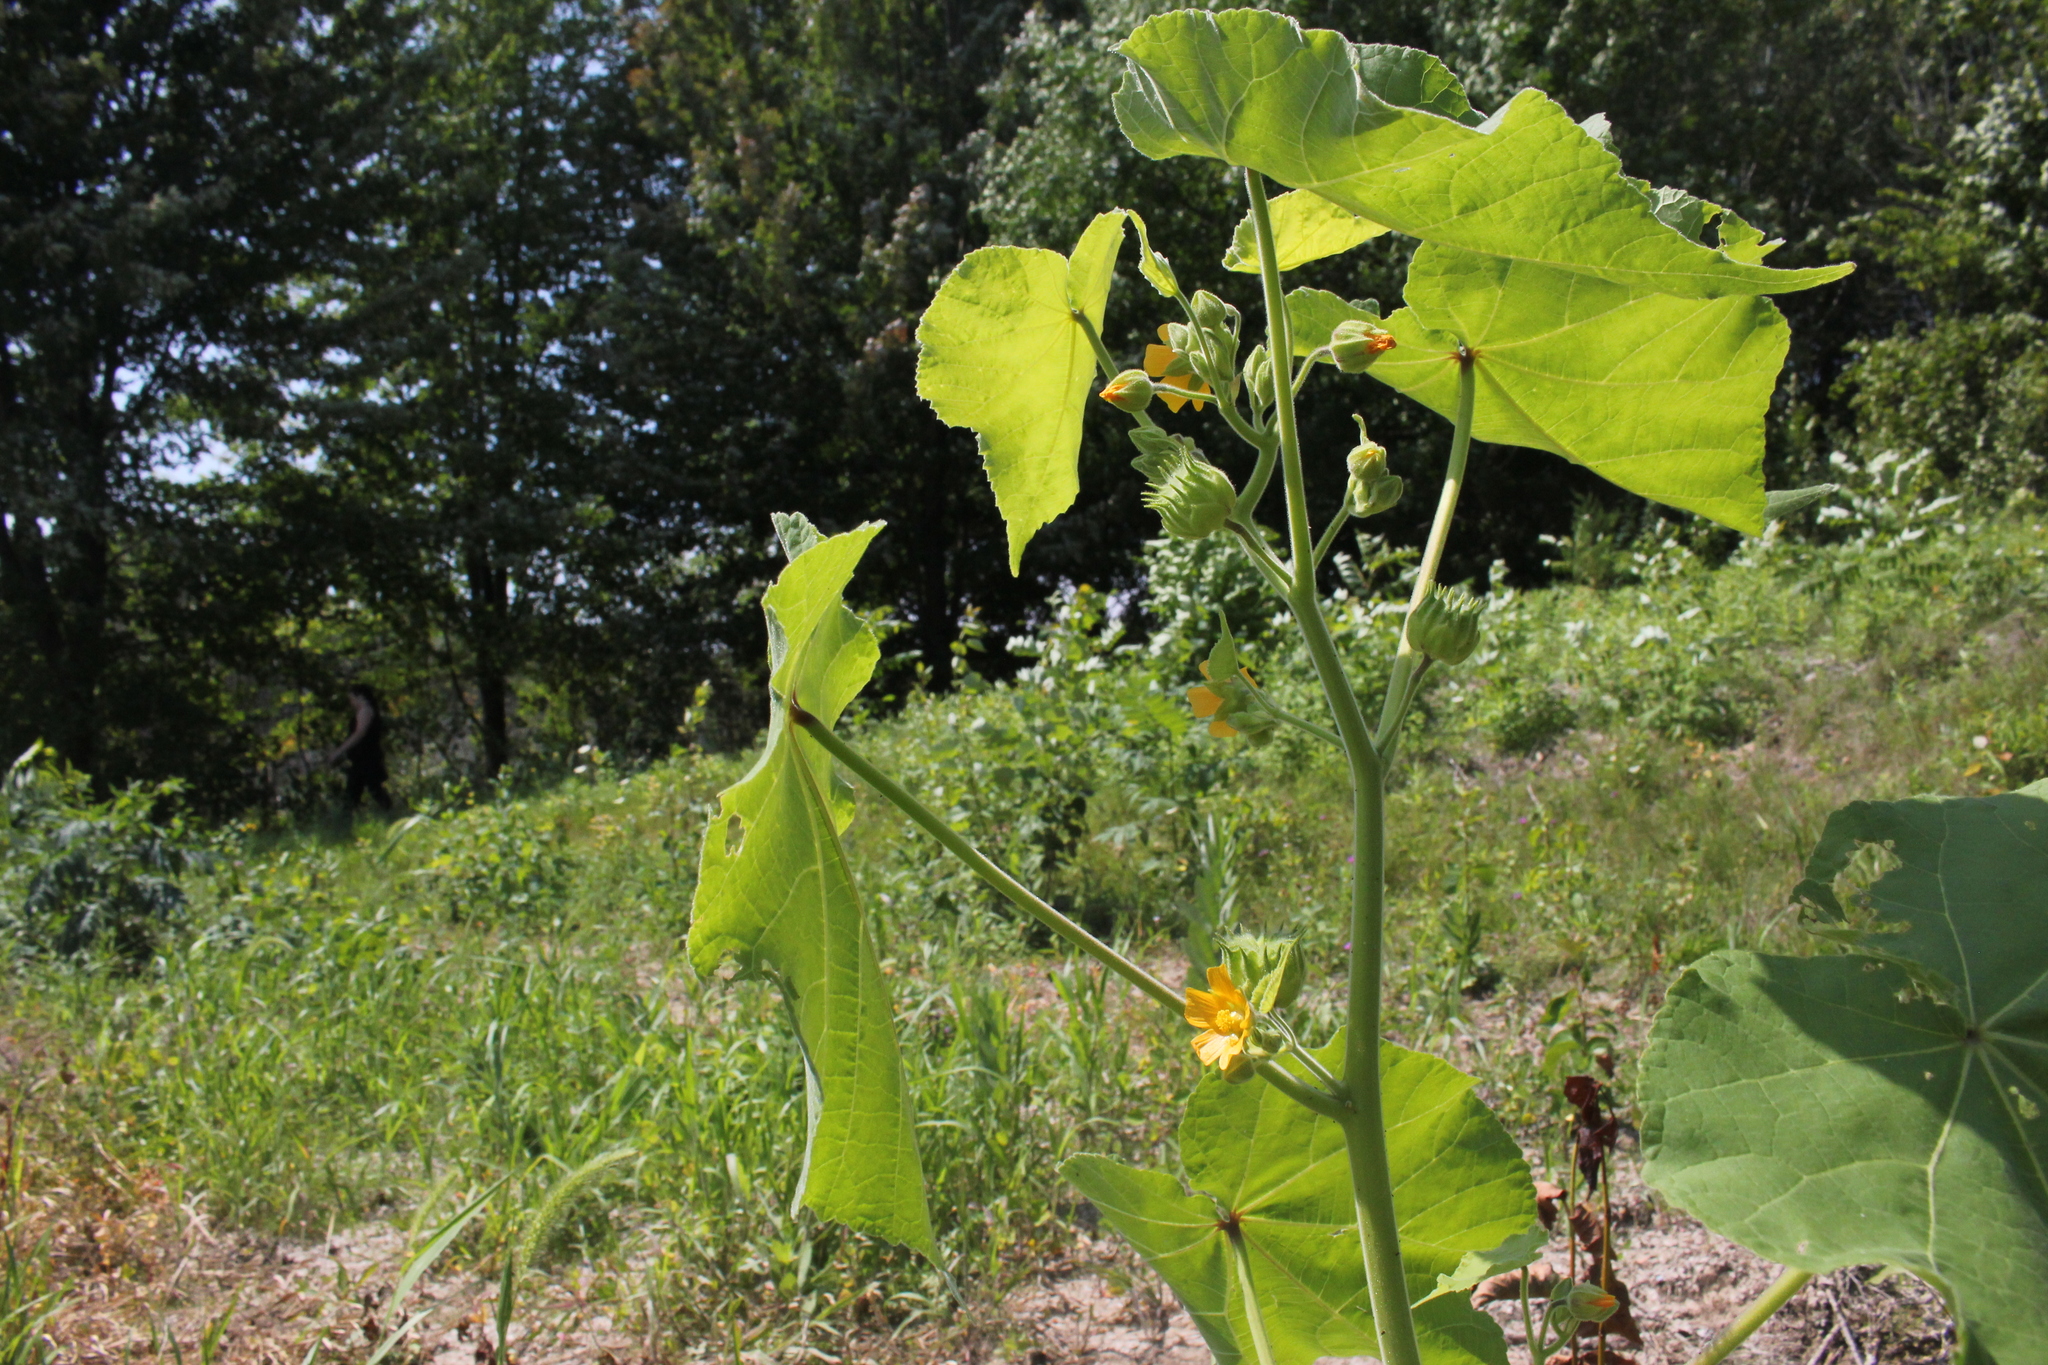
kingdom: Plantae
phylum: Tracheophyta
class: Magnoliopsida
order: Malvales
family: Malvaceae
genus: Abutilon
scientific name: Abutilon theophrasti
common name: Velvetleaf
